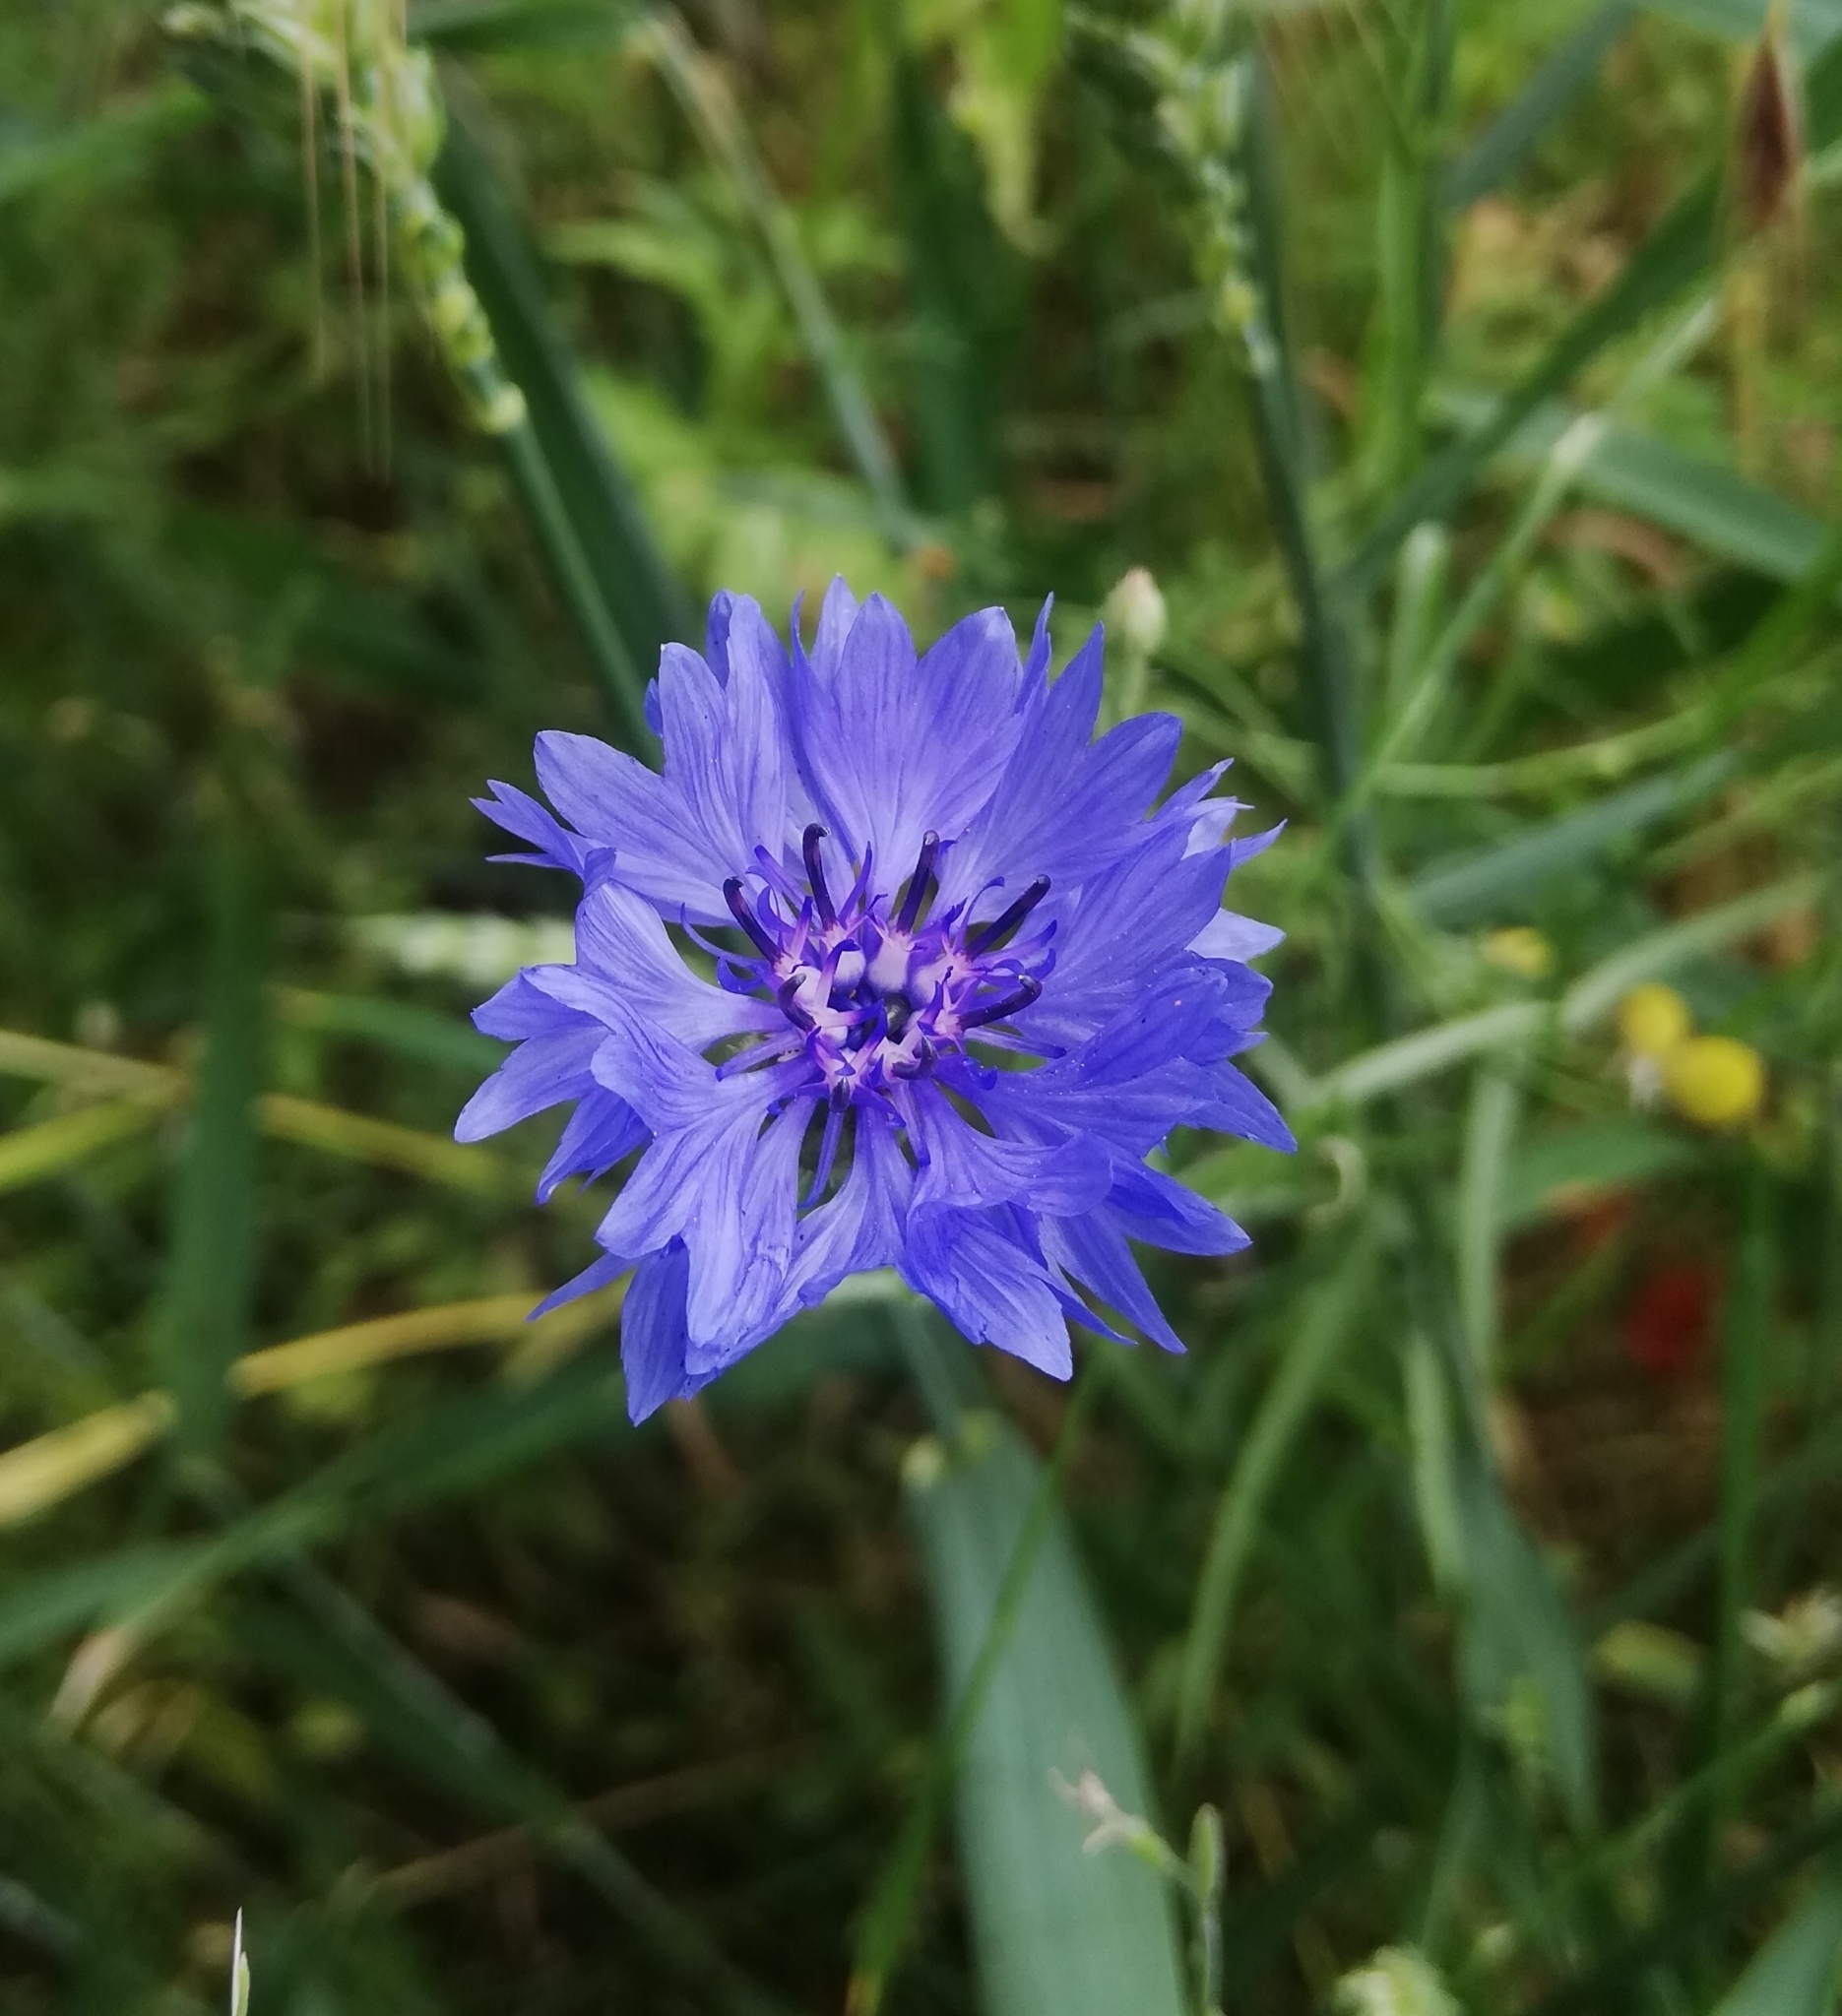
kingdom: Plantae
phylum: Tracheophyta
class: Magnoliopsida
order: Asterales
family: Asteraceae
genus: Centaurea
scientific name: Centaurea cyanus
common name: Cornflower
